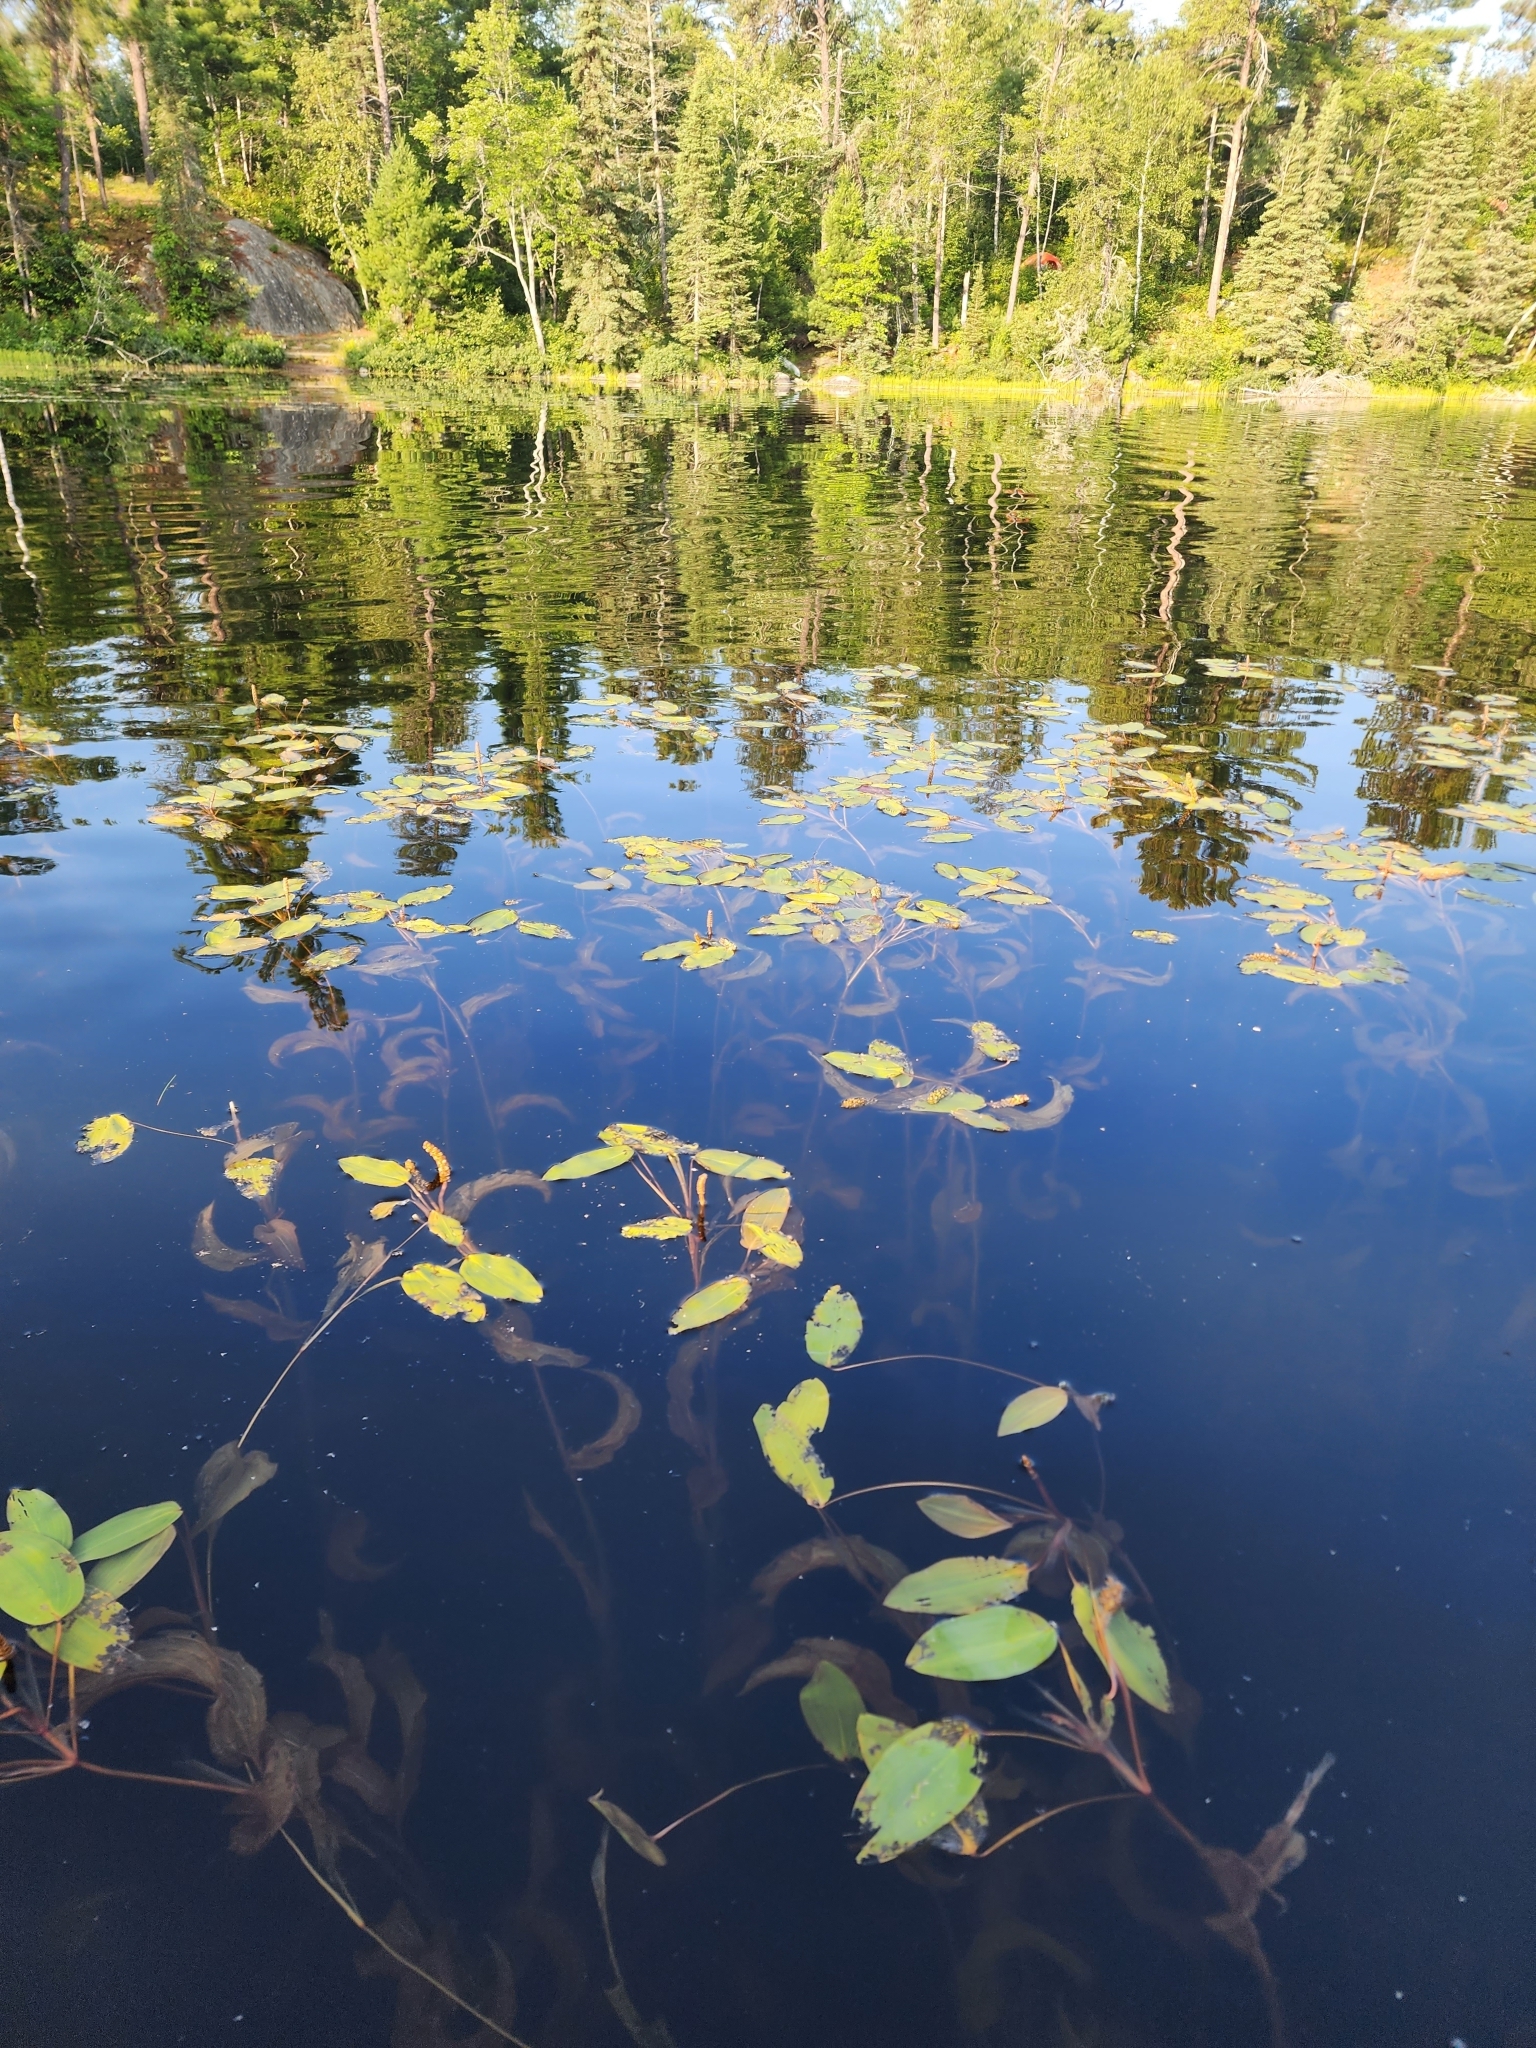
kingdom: Plantae
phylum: Tracheophyta
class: Liliopsida
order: Alismatales
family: Potamogetonaceae
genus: Potamogeton
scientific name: Potamogeton amplifolius
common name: Broad-leaved pondweed
